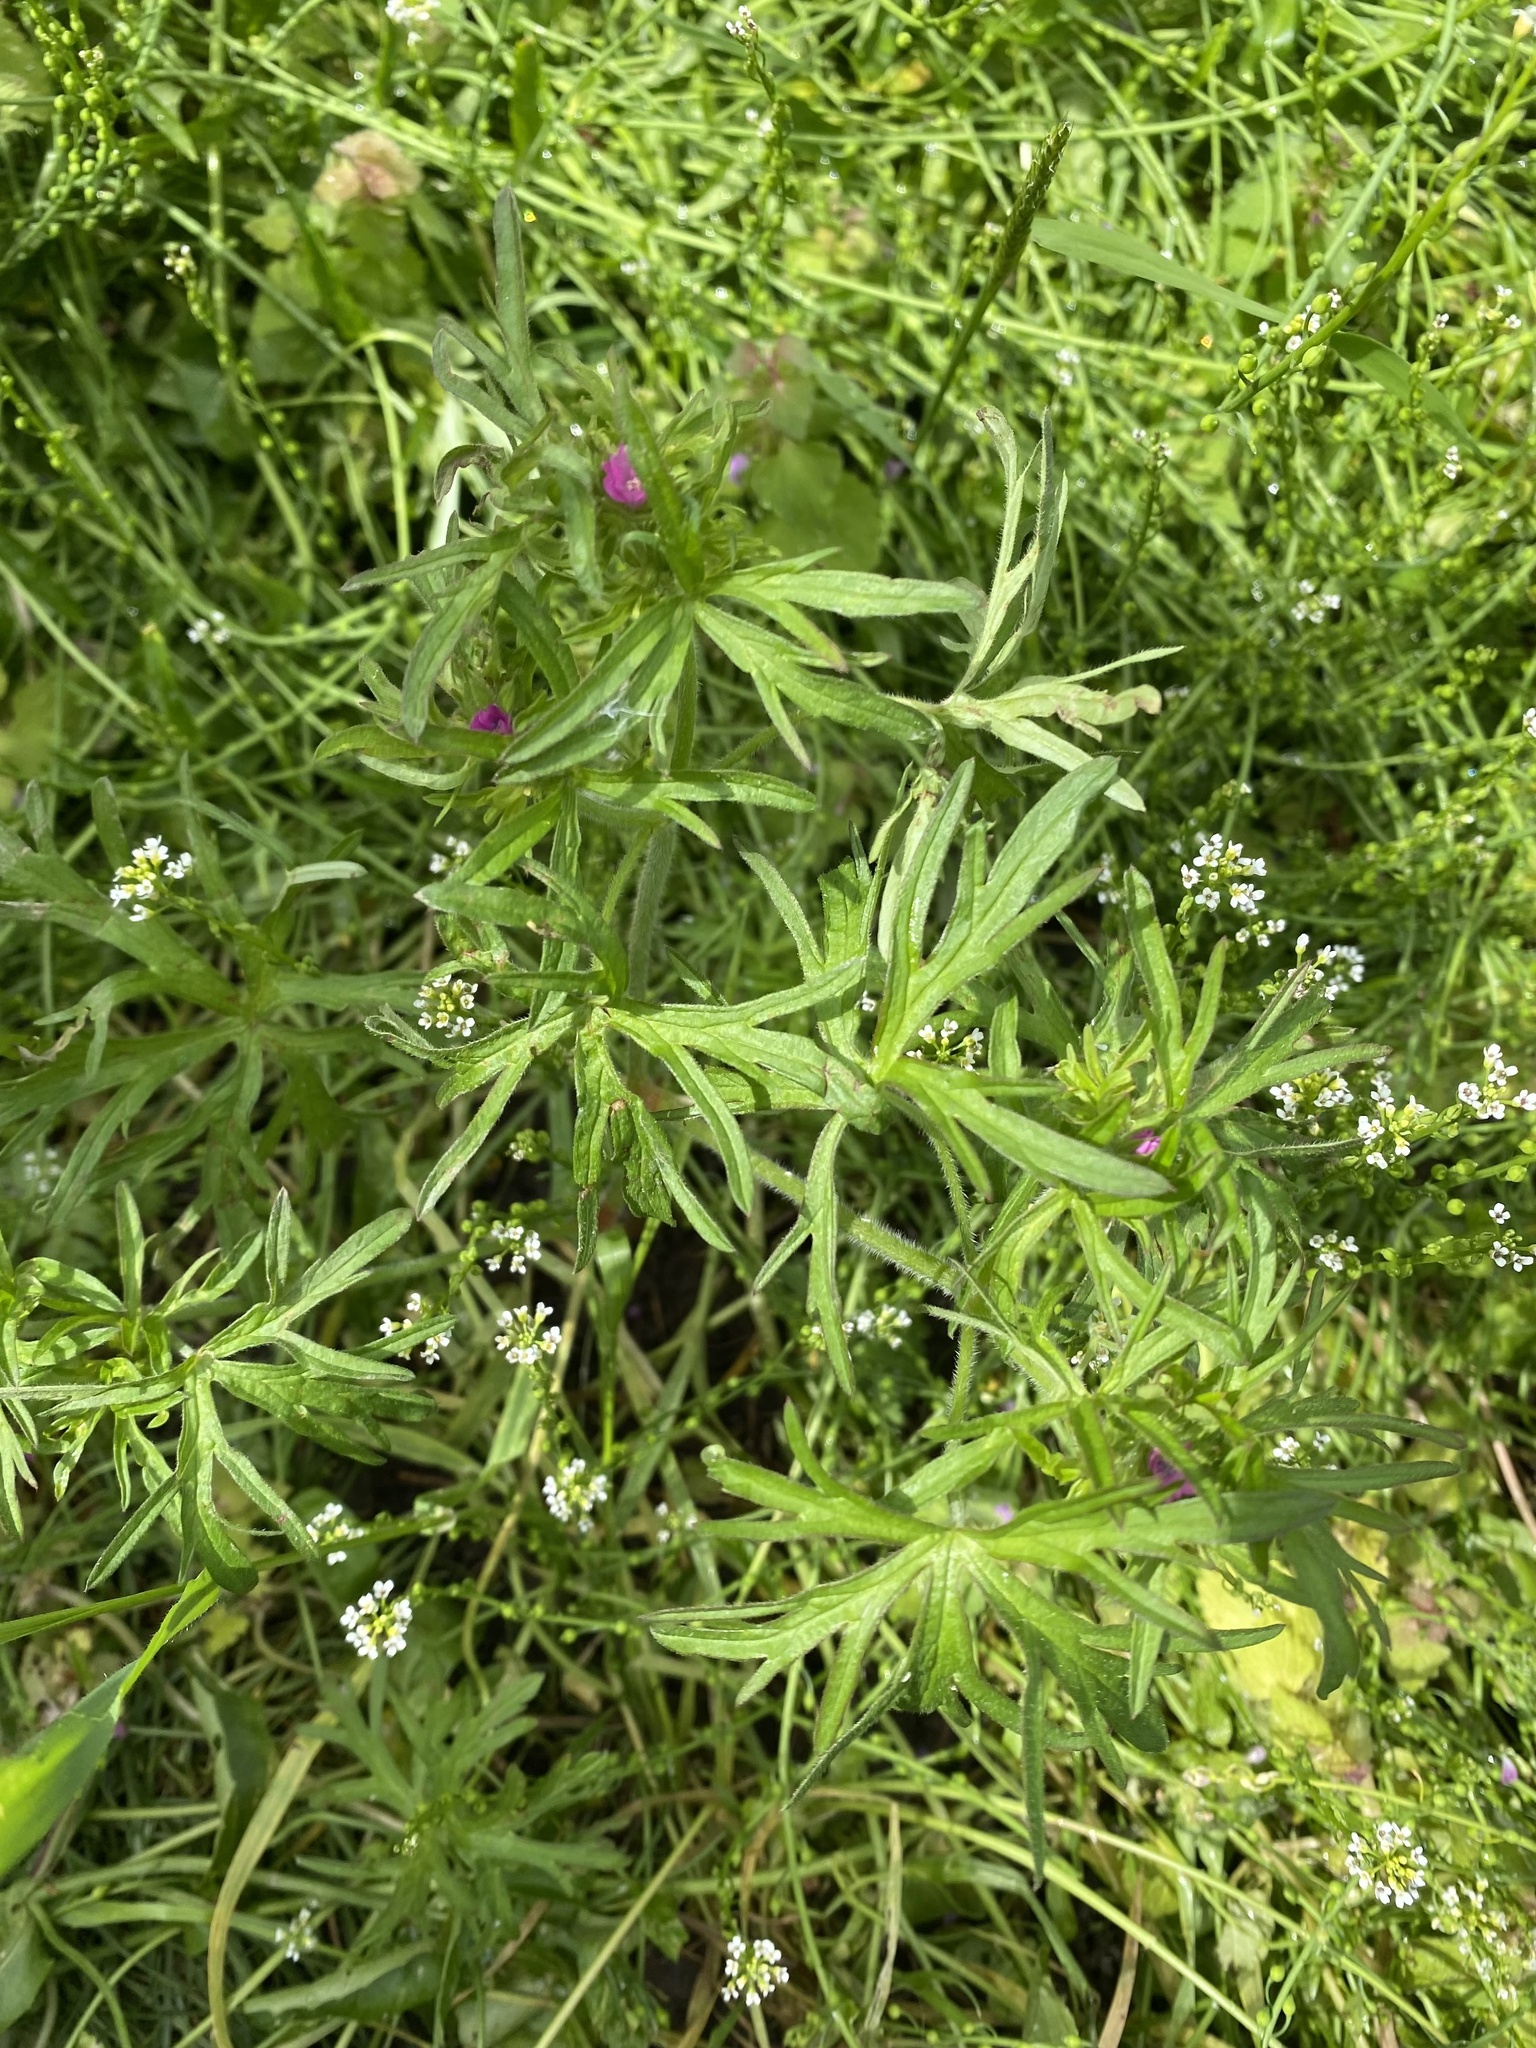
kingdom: Plantae
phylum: Tracheophyta
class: Magnoliopsida
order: Geraniales
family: Geraniaceae
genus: Geranium
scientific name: Geranium dissectum
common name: Cut-leaved crane's-bill
